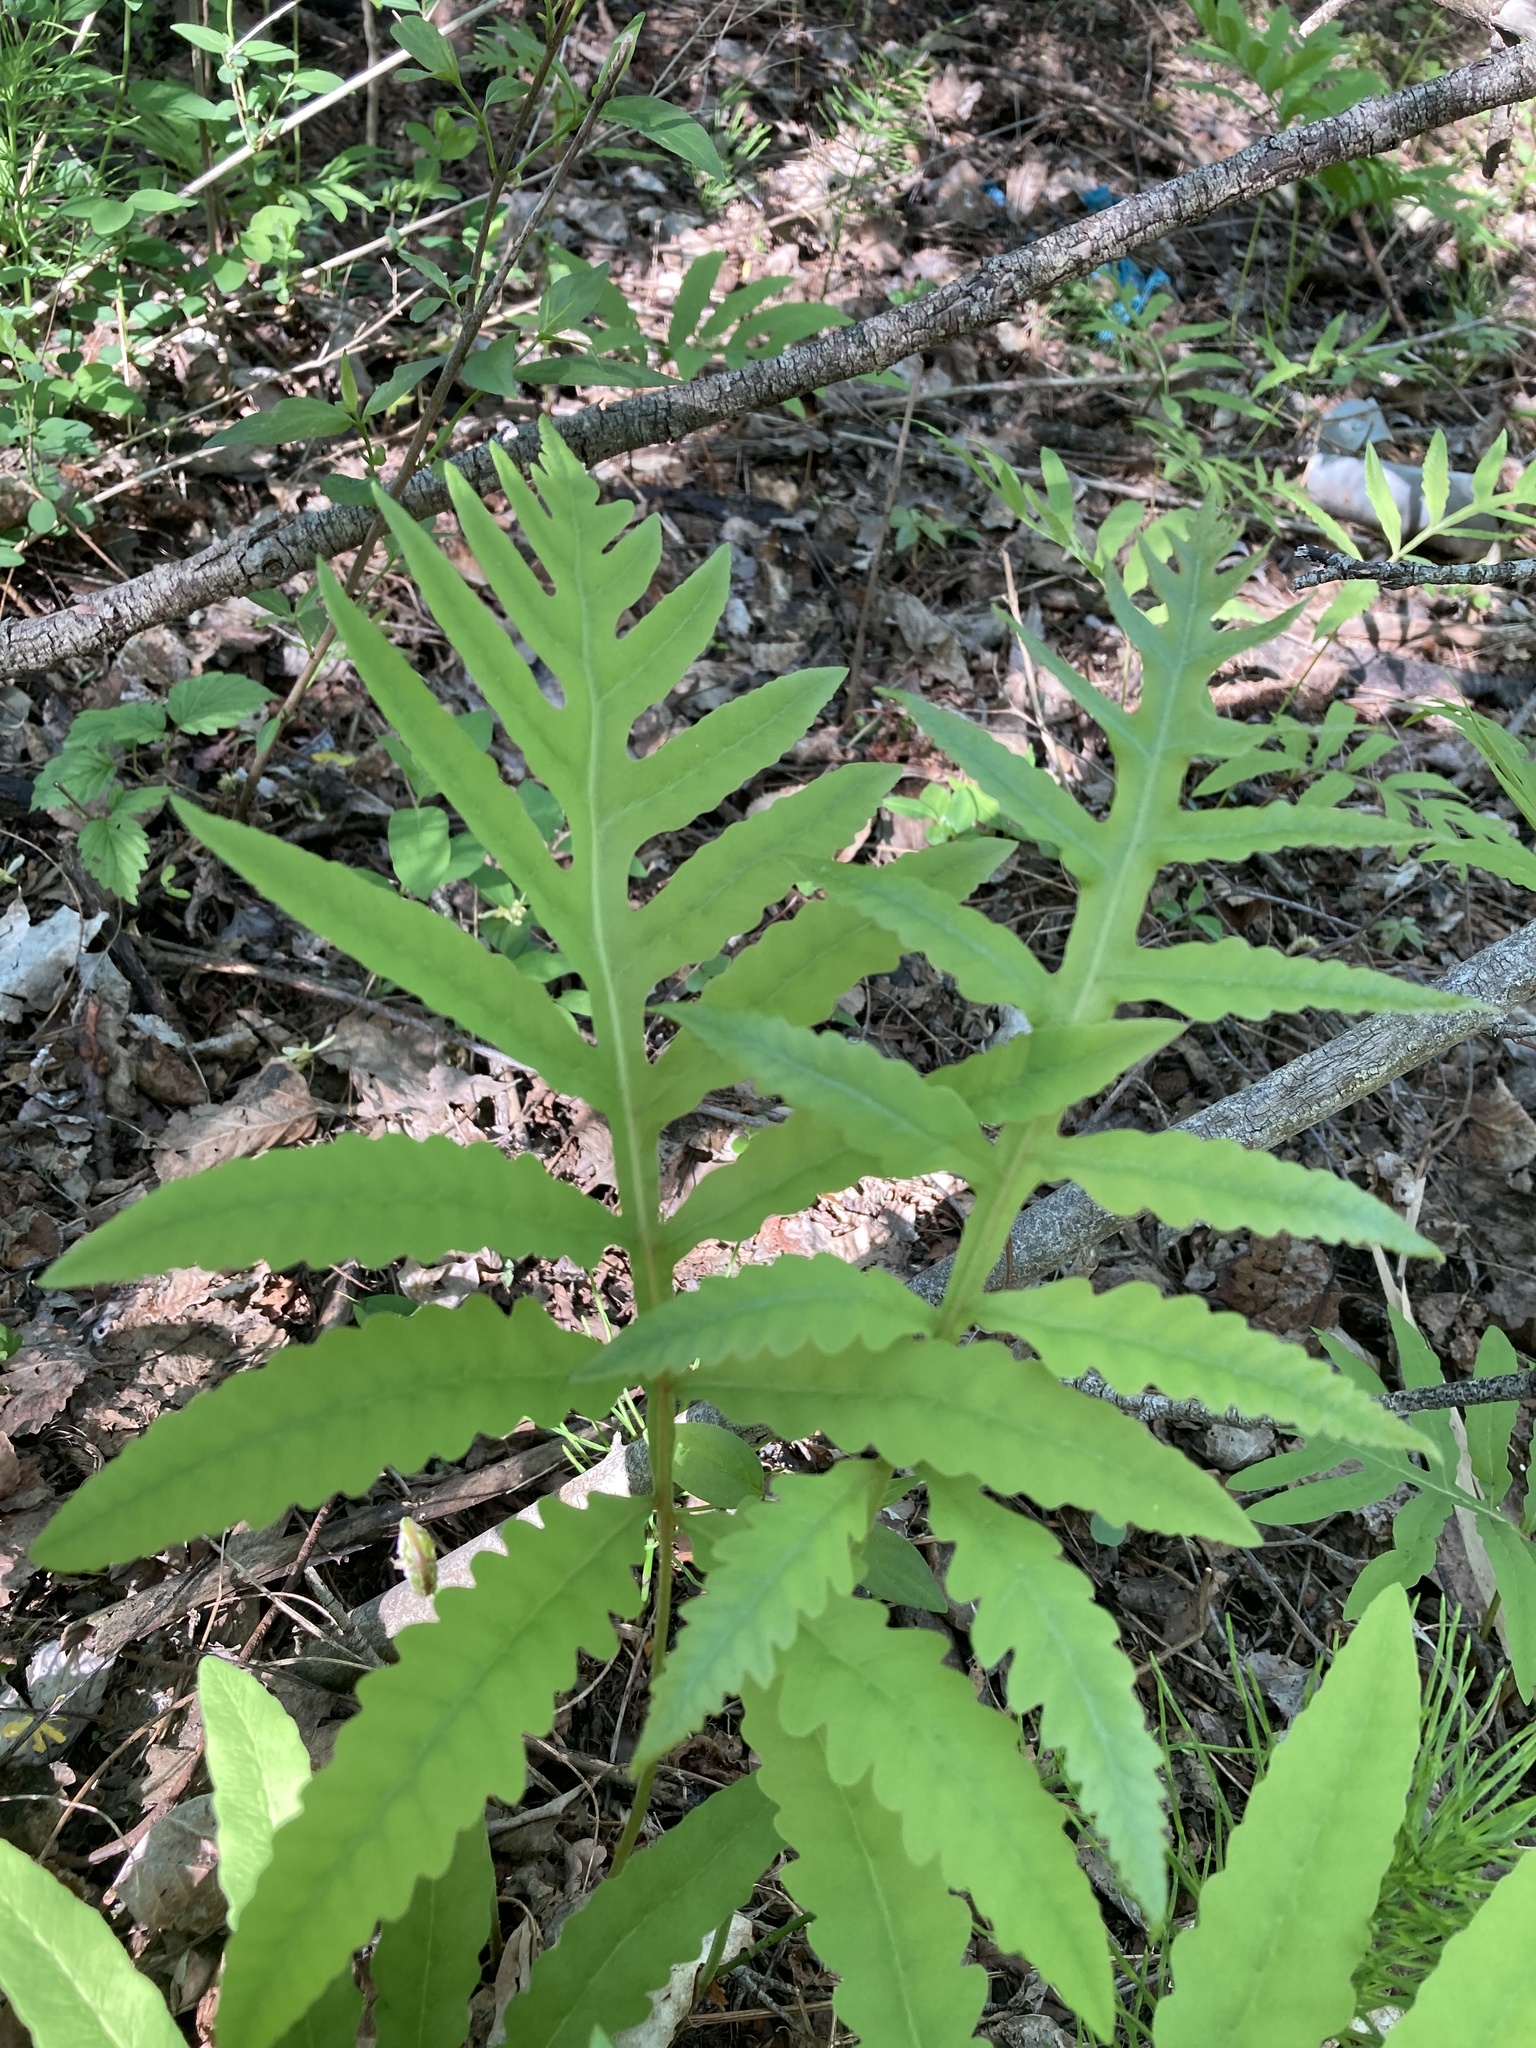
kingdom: Plantae
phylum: Tracheophyta
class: Polypodiopsida
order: Polypodiales
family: Onocleaceae
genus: Onoclea
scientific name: Onoclea sensibilis
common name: Sensitive fern
